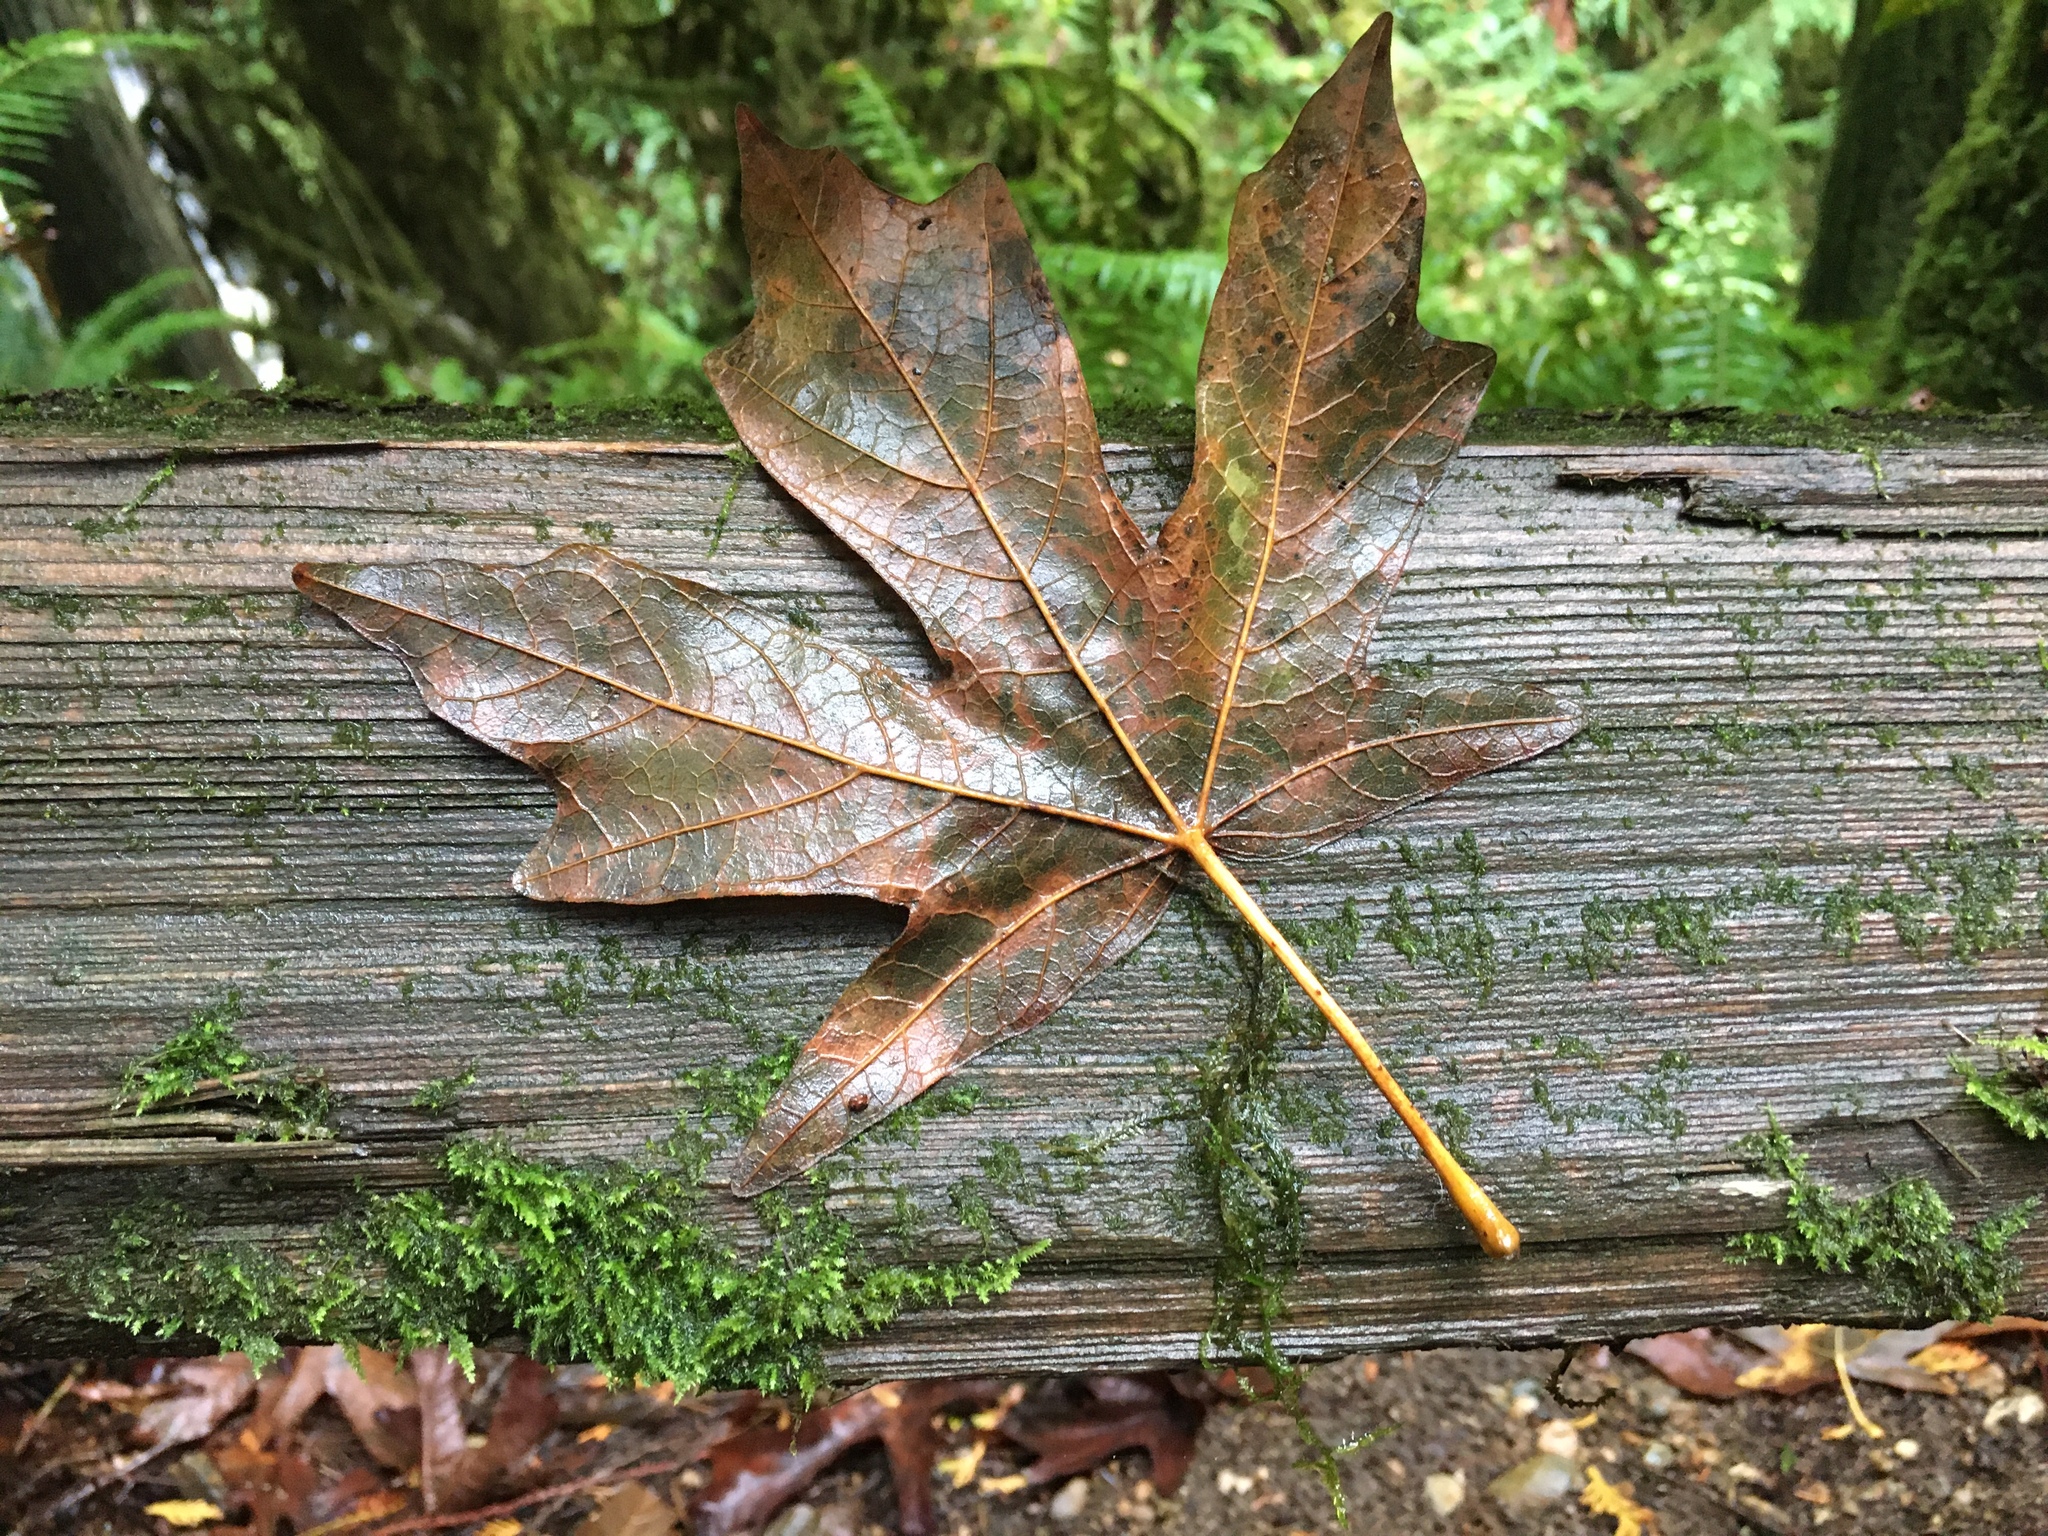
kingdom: Plantae
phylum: Tracheophyta
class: Magnoliopsida
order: Sapindales
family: Sapindaceae
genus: Acer
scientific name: Acer macrophyllum
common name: Oregon maple
